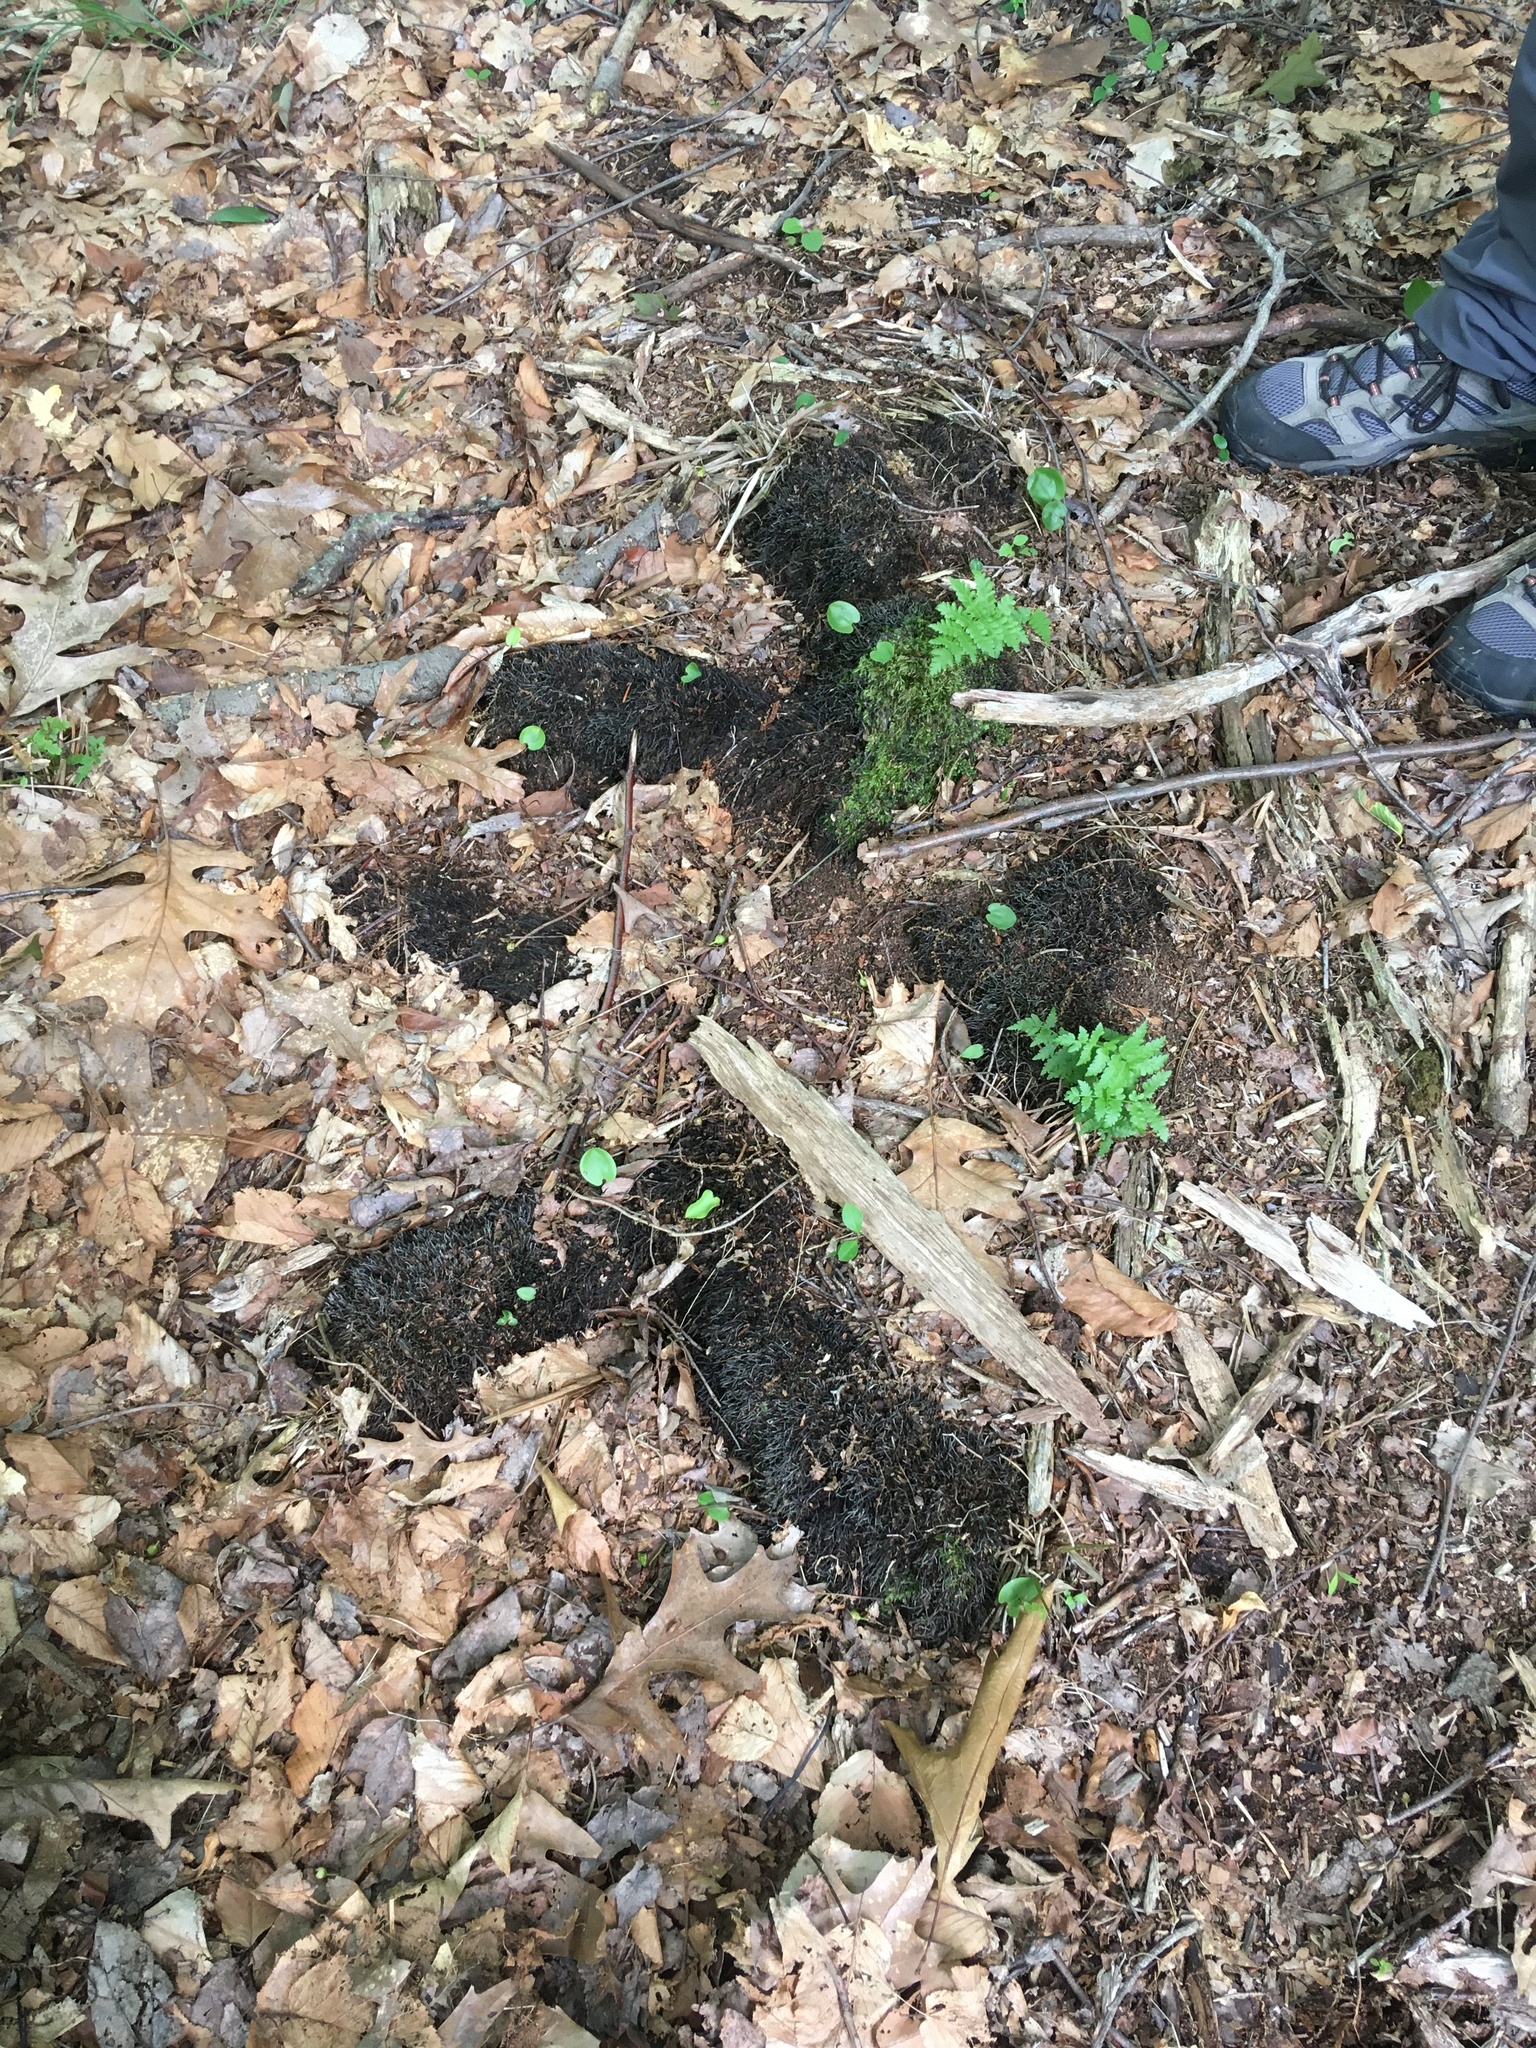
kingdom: Plantae
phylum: Tracheophyta
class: Polypodiopsida
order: Osmundales
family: Osmundaceae
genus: Osmundastrum
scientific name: Osmundastrum cinnamomeum
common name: Cinnamon fern
